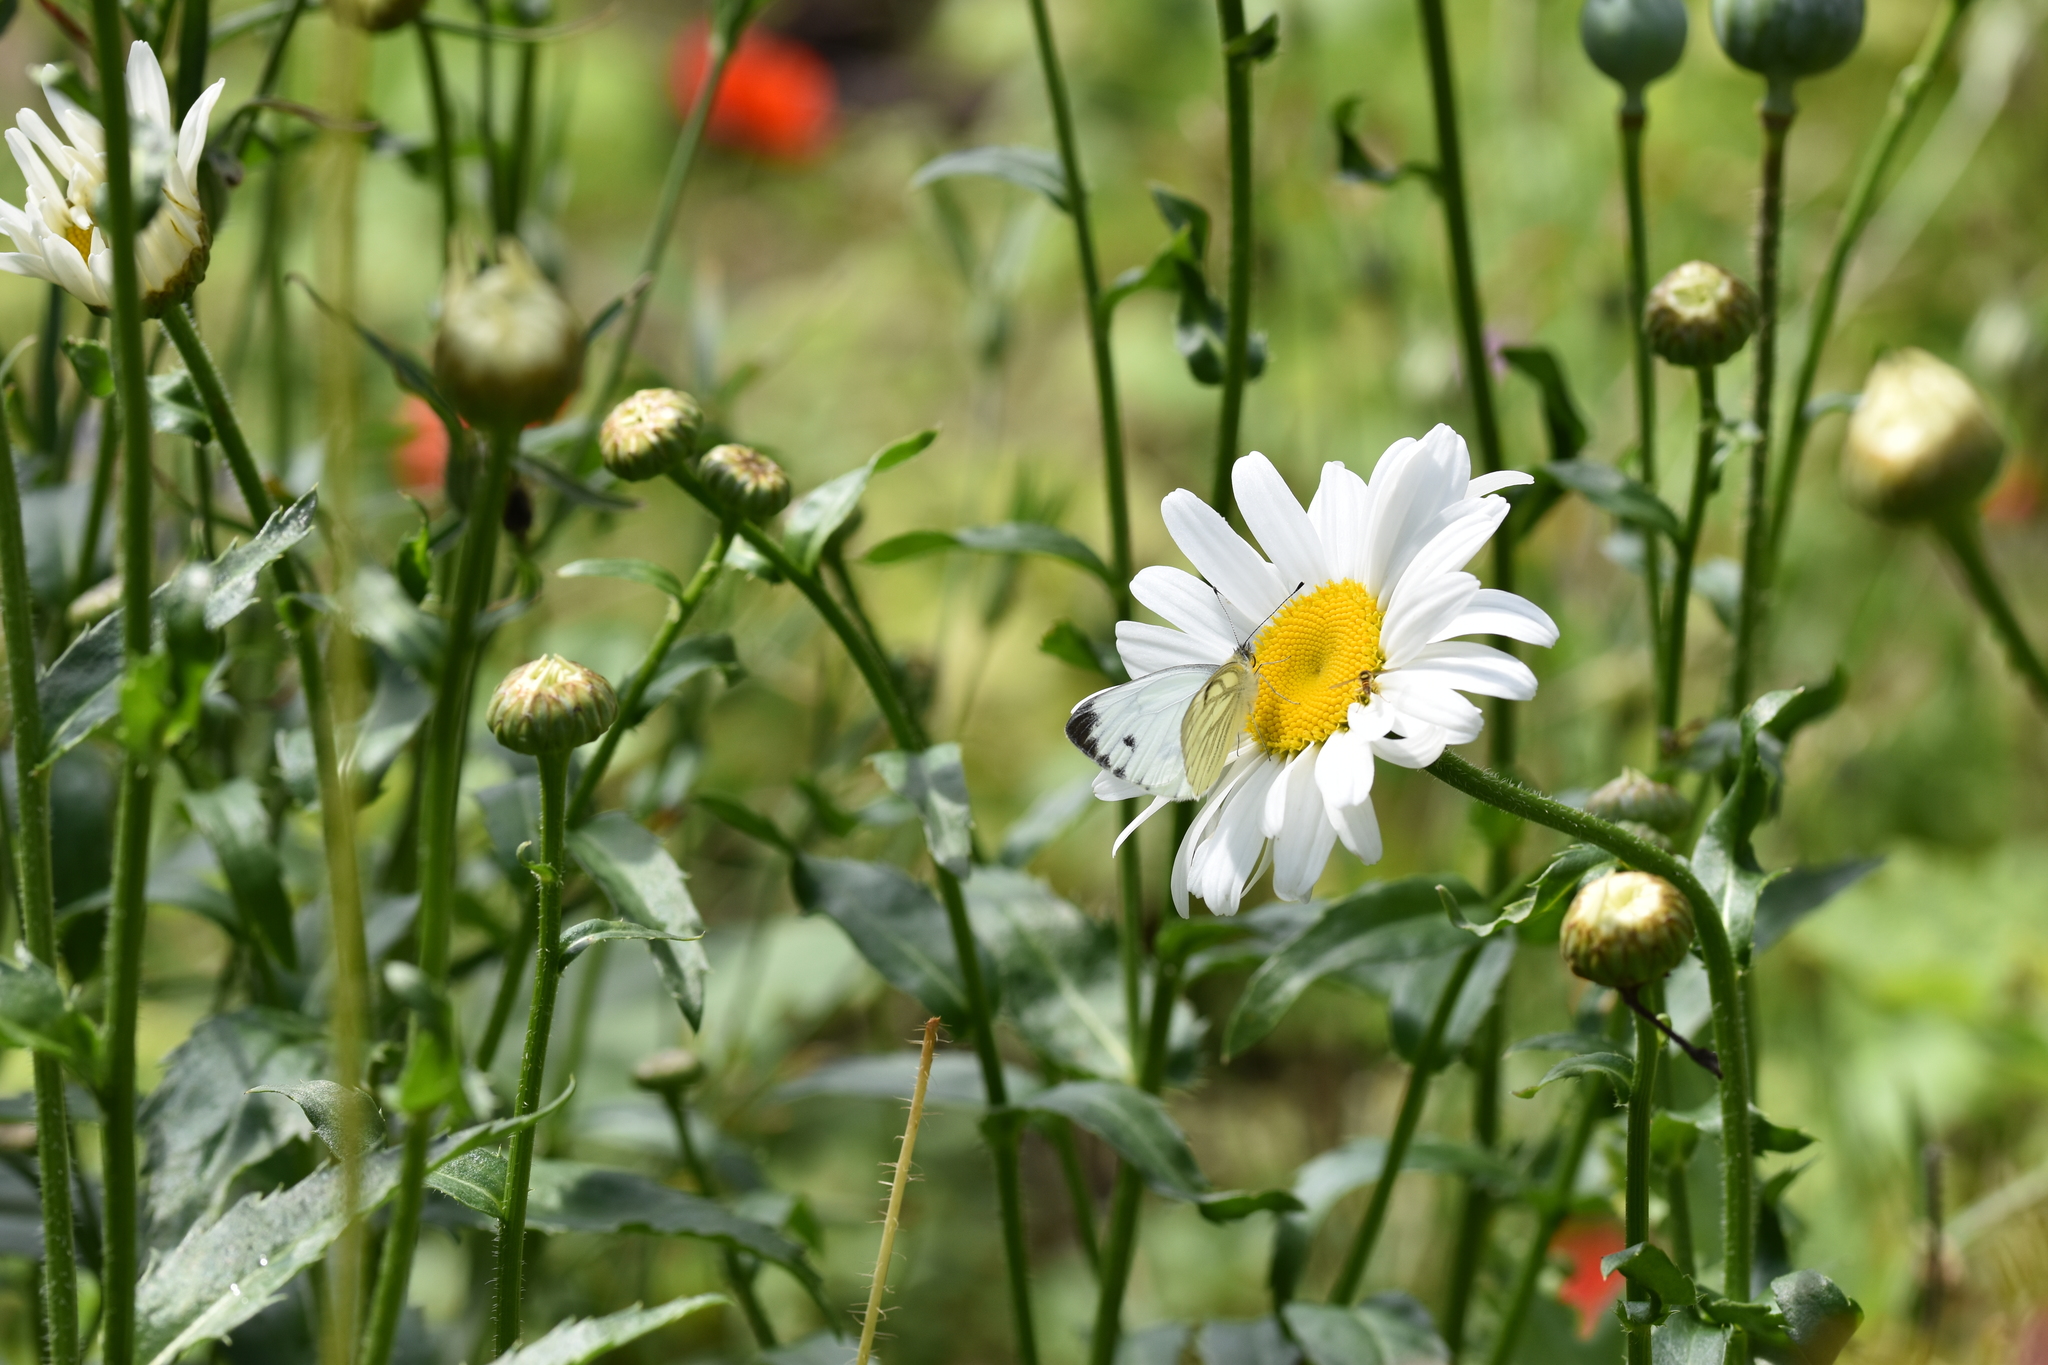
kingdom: Animalia
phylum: Arthropoda
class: Insecta
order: Lepidoptera
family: Pieridae
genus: Pieris
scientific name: Pieris napi
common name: Green-veined white
